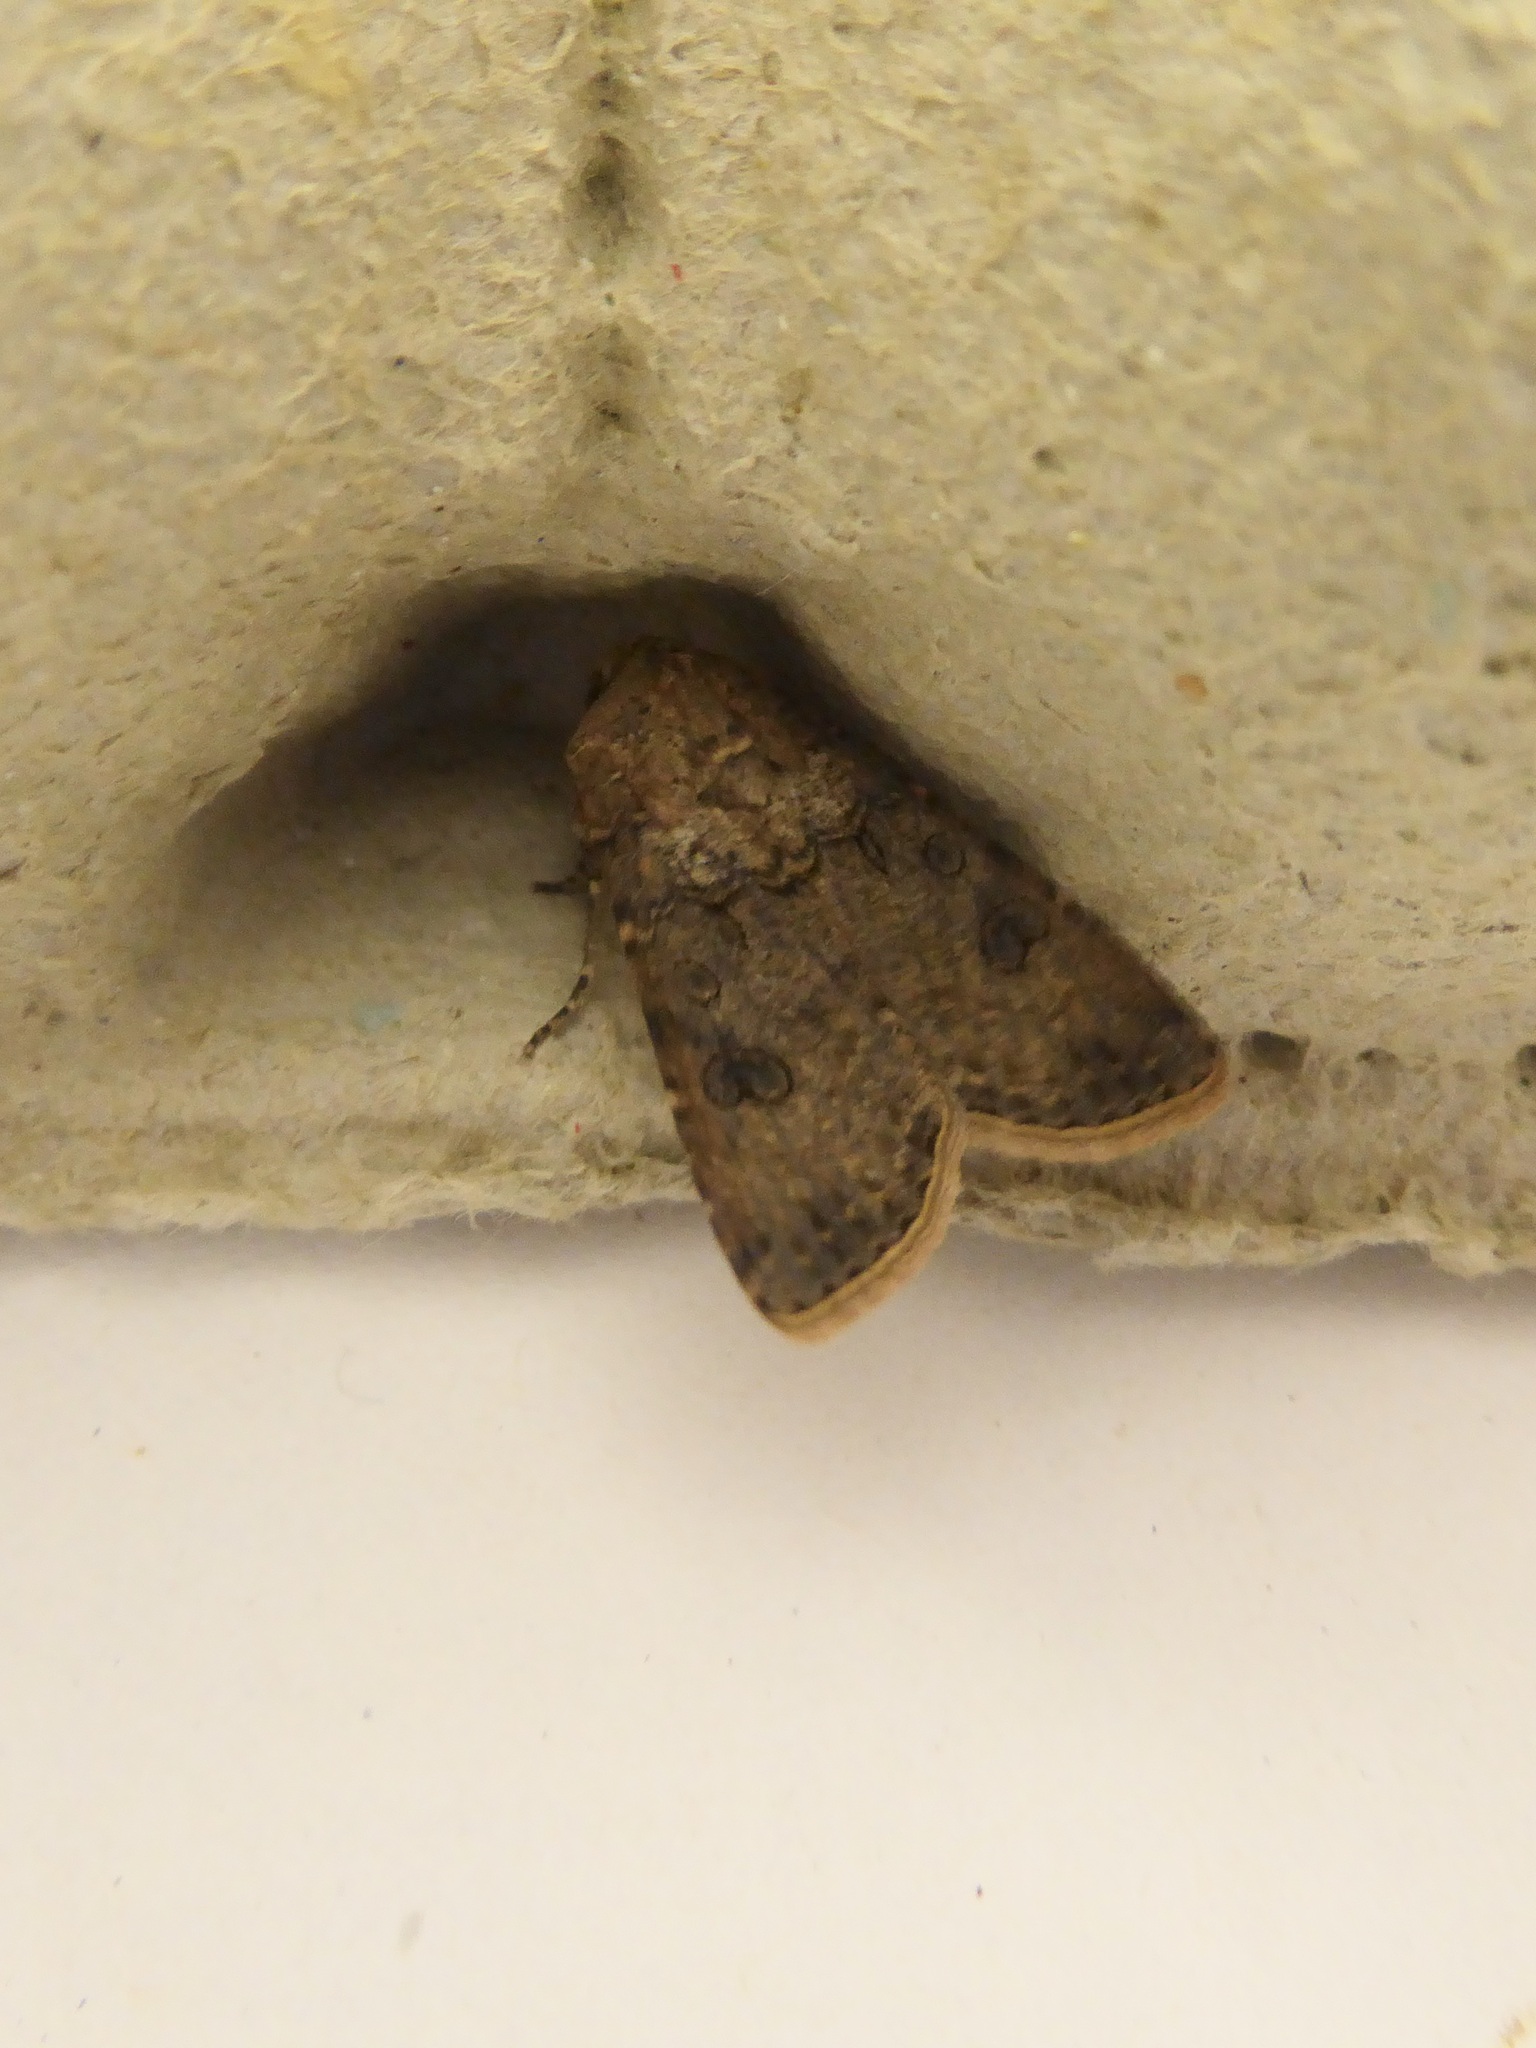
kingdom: Animalia
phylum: Arthropoda
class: Insecta
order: Lepidoptera
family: Noctuidae
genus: Agrotis
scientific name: Agrotis segetum
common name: Turnip moth
